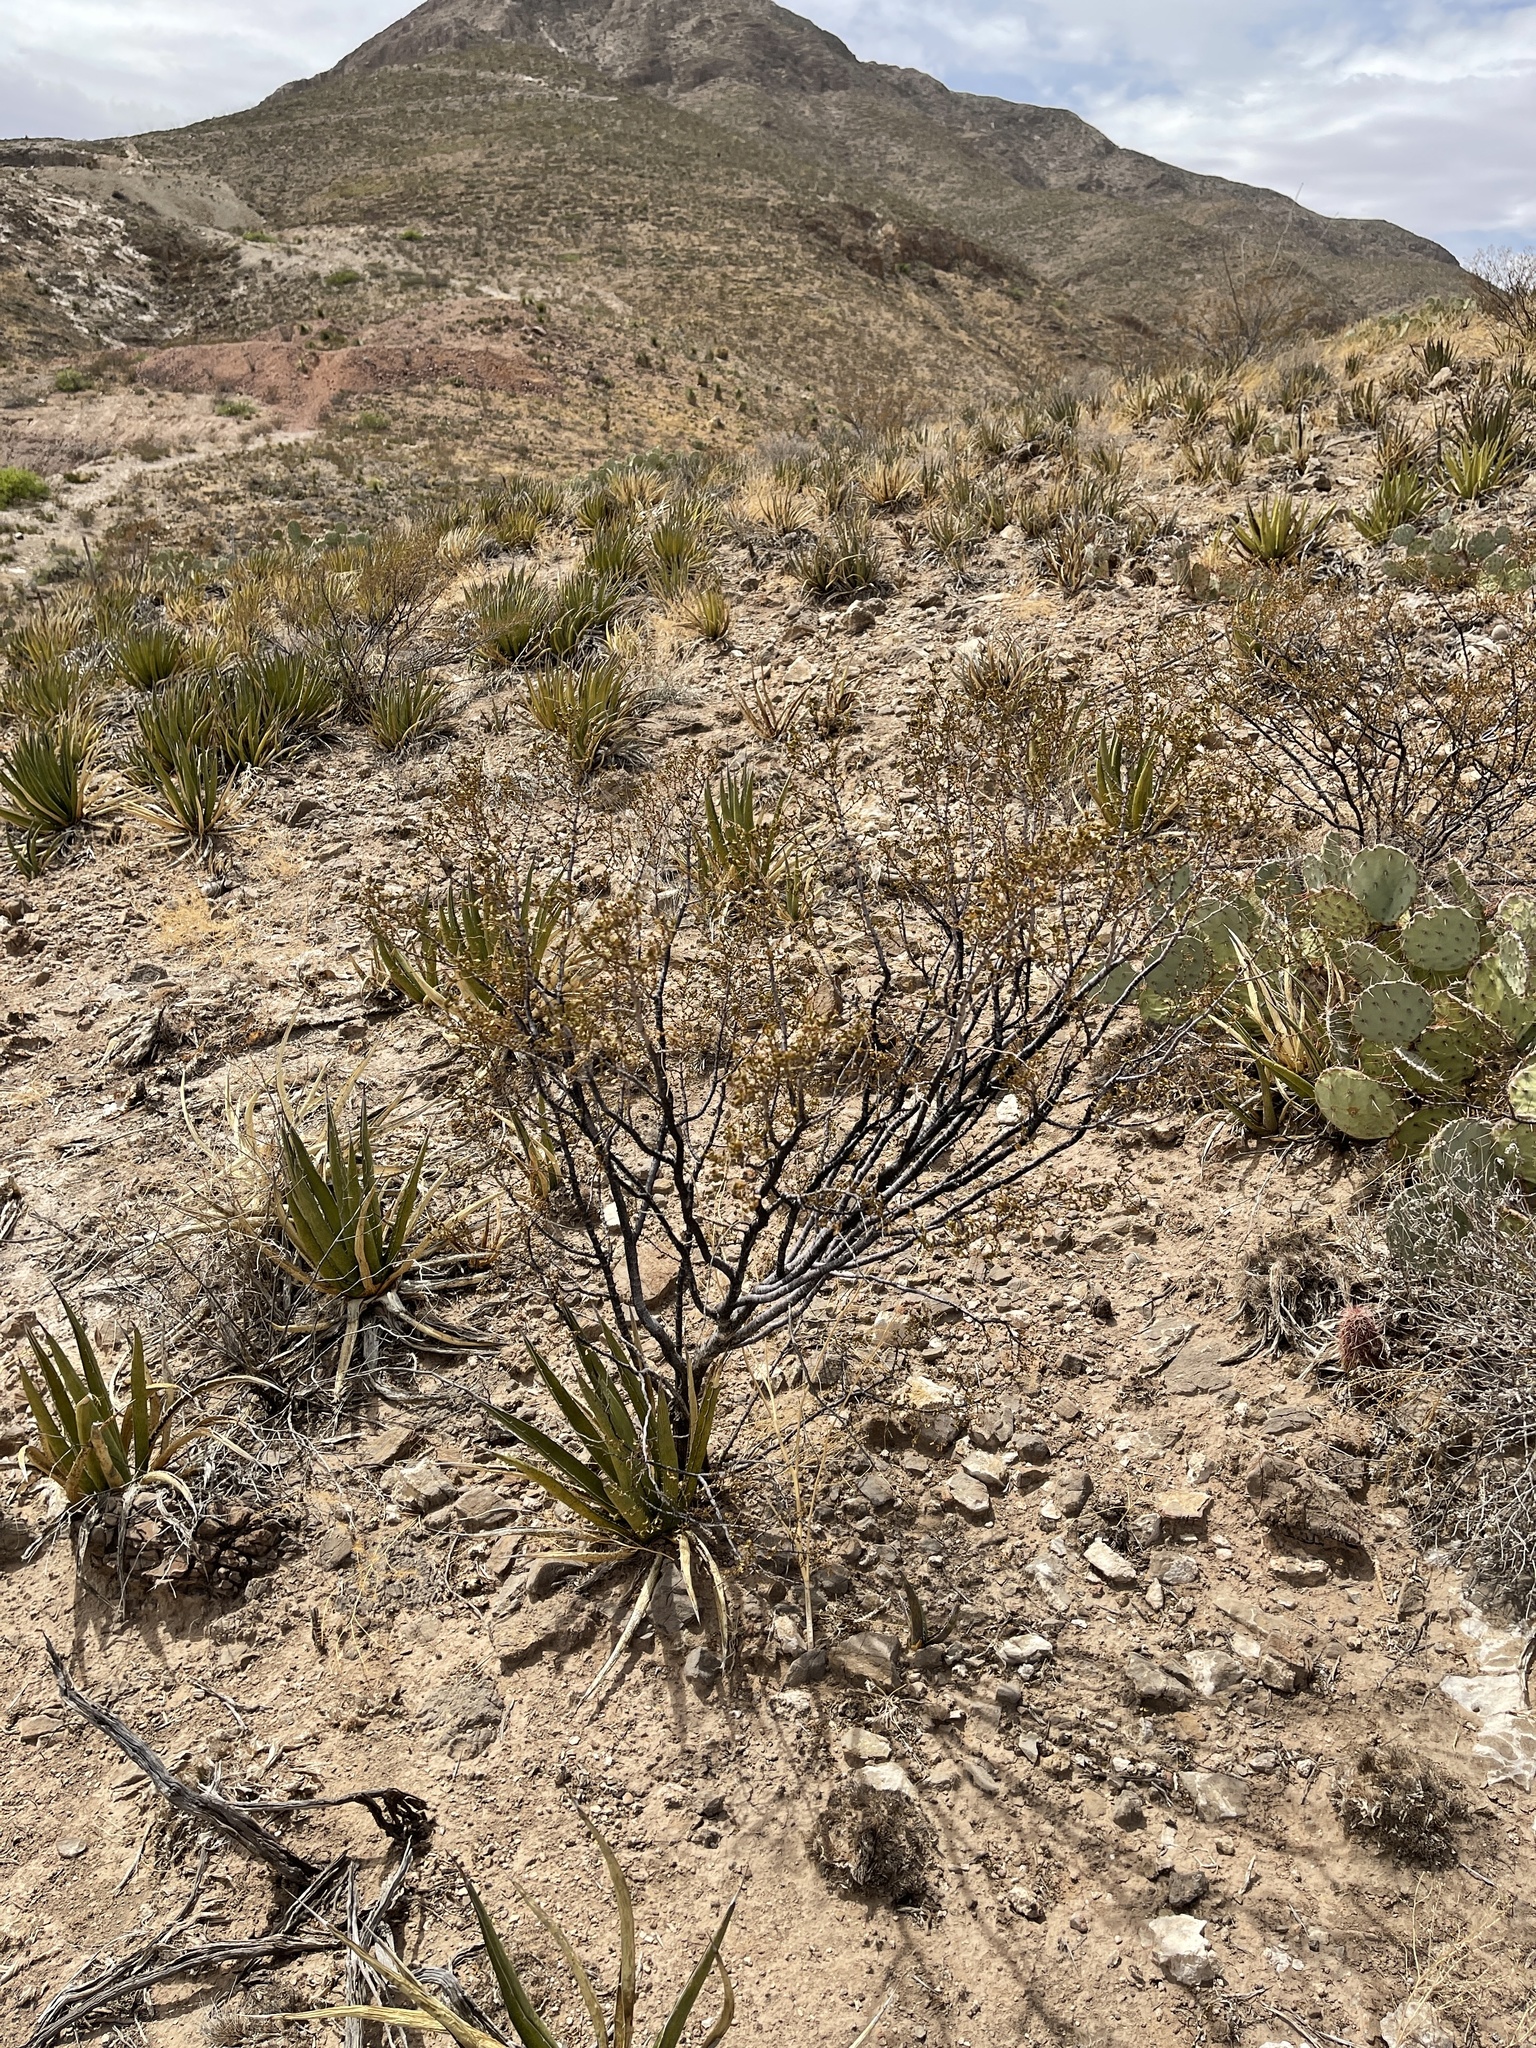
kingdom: Plantae
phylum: Tracheophyta
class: Magnoliopsida
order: Zygophyllales
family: Zygophyllaceae
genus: Larrea
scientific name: Larrea tridentata
